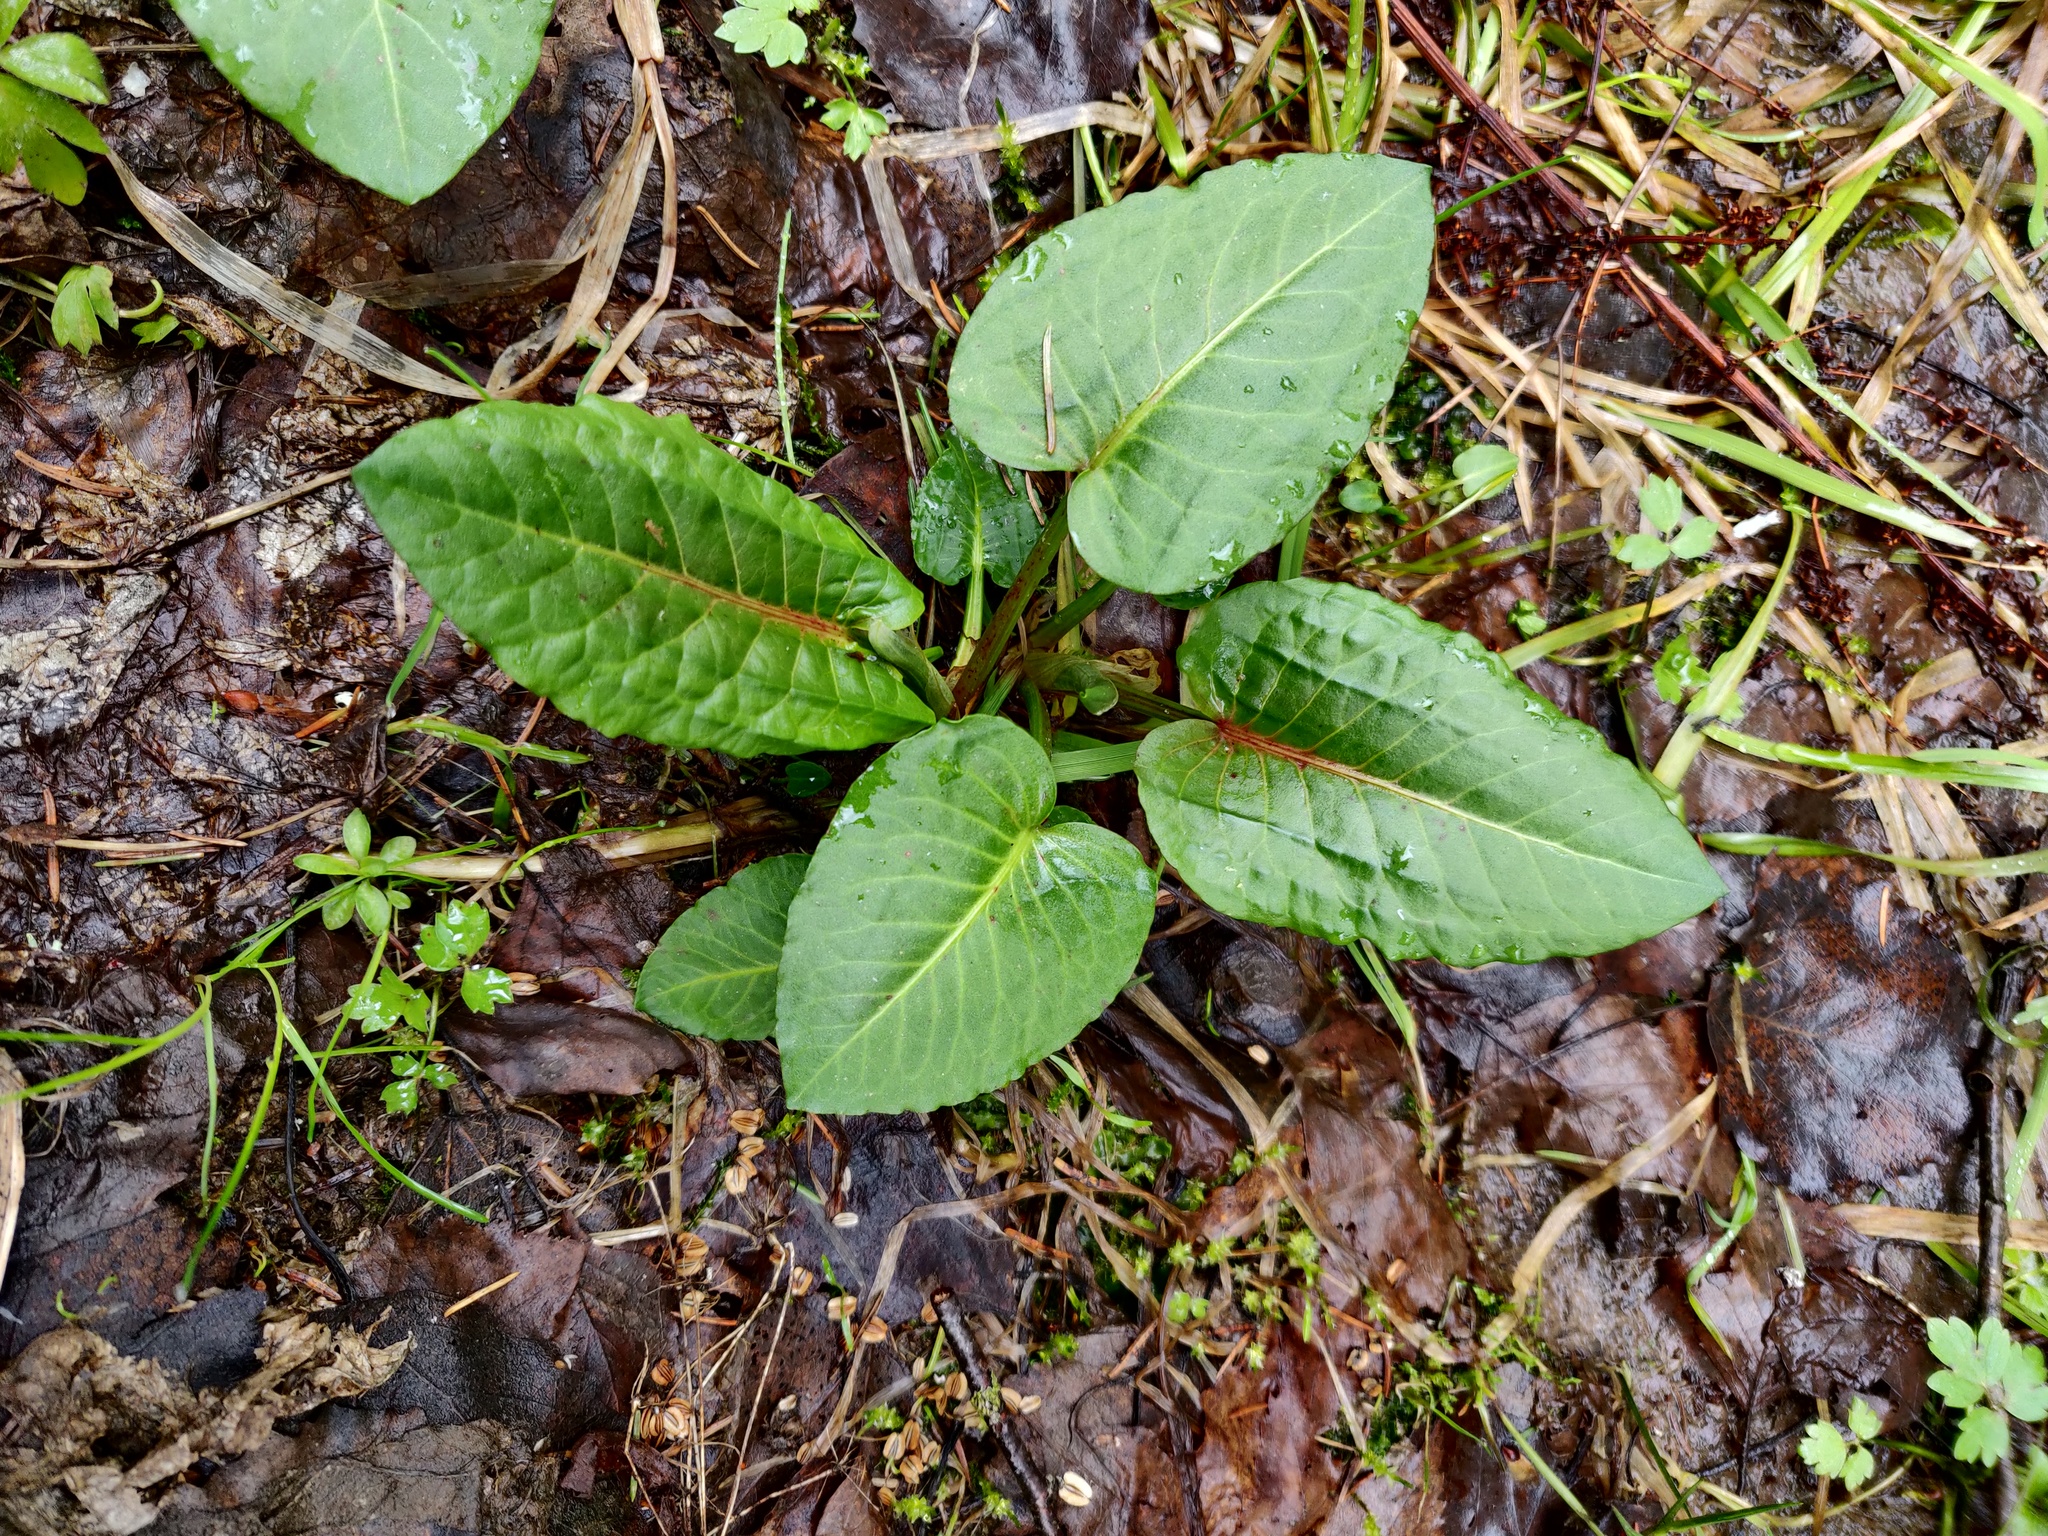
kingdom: Plantae
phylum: Tracheophyta
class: Magnoliopsida
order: Caryophyllales
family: Polygonaceae
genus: Rumex
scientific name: Rumex obtusifolius
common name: Bitter dock
